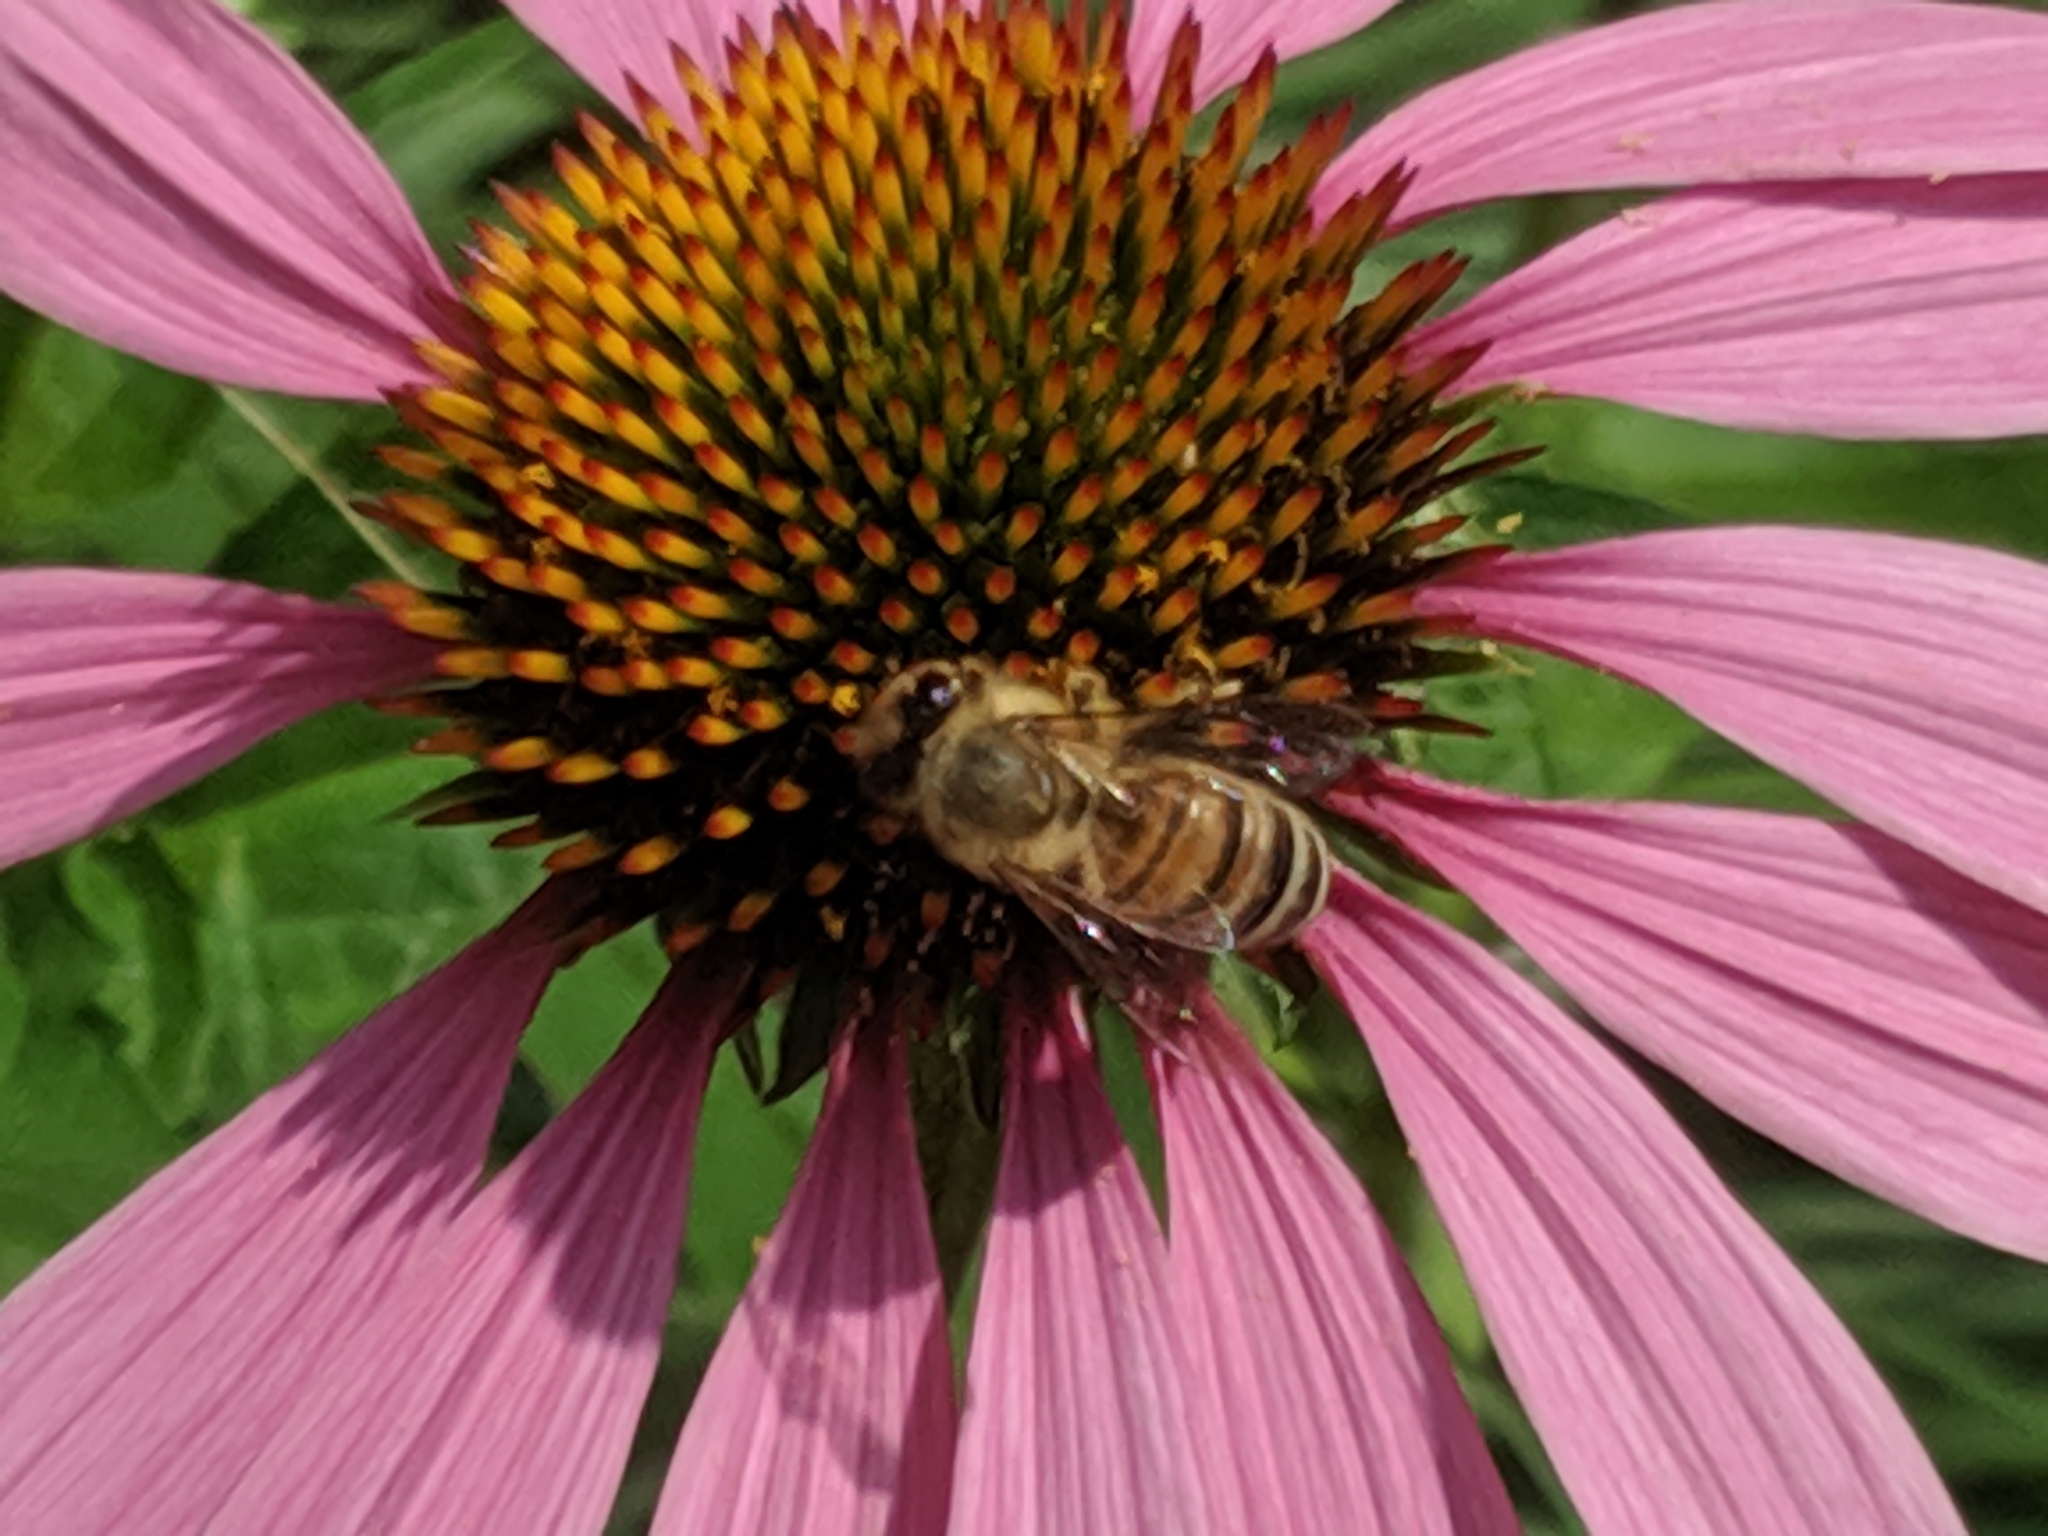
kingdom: Animalia
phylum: Arthropoda
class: Insecta
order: Hymenoptera
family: Apidae
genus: Apis
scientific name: Apis mellifera
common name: Honey bee
